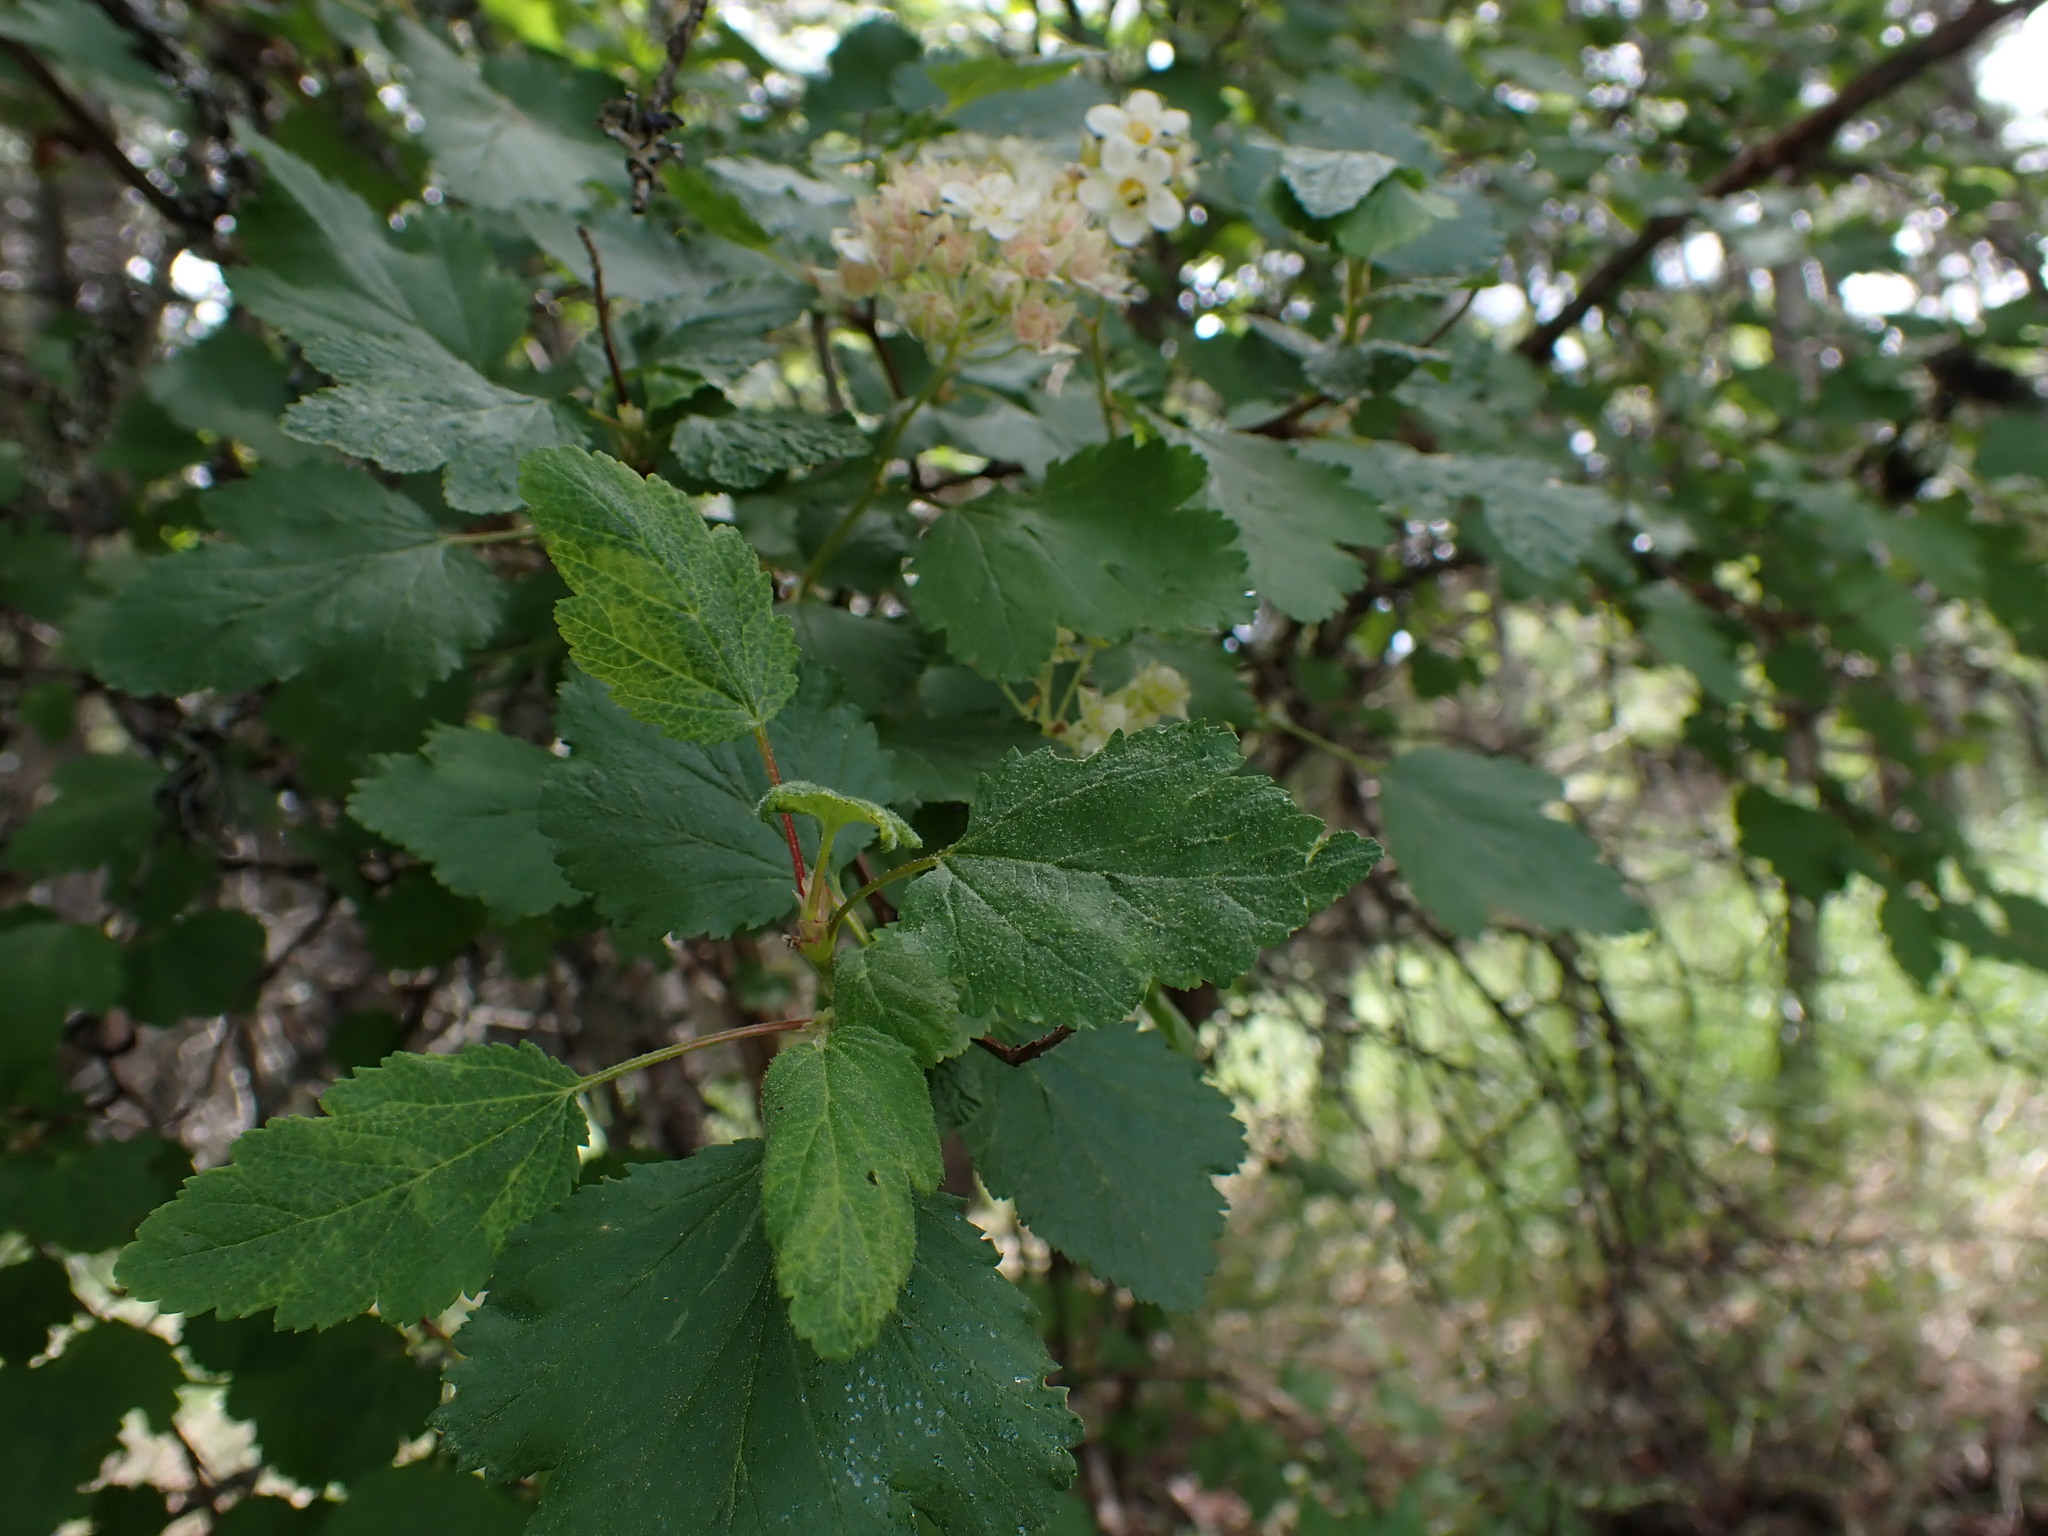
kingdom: Plantae
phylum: Tracheophyta
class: Magnoliopsida
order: Rosales
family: Rosaceae
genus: Physocarpus
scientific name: Physocarpus malvaceus
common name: Mallow ninebark
